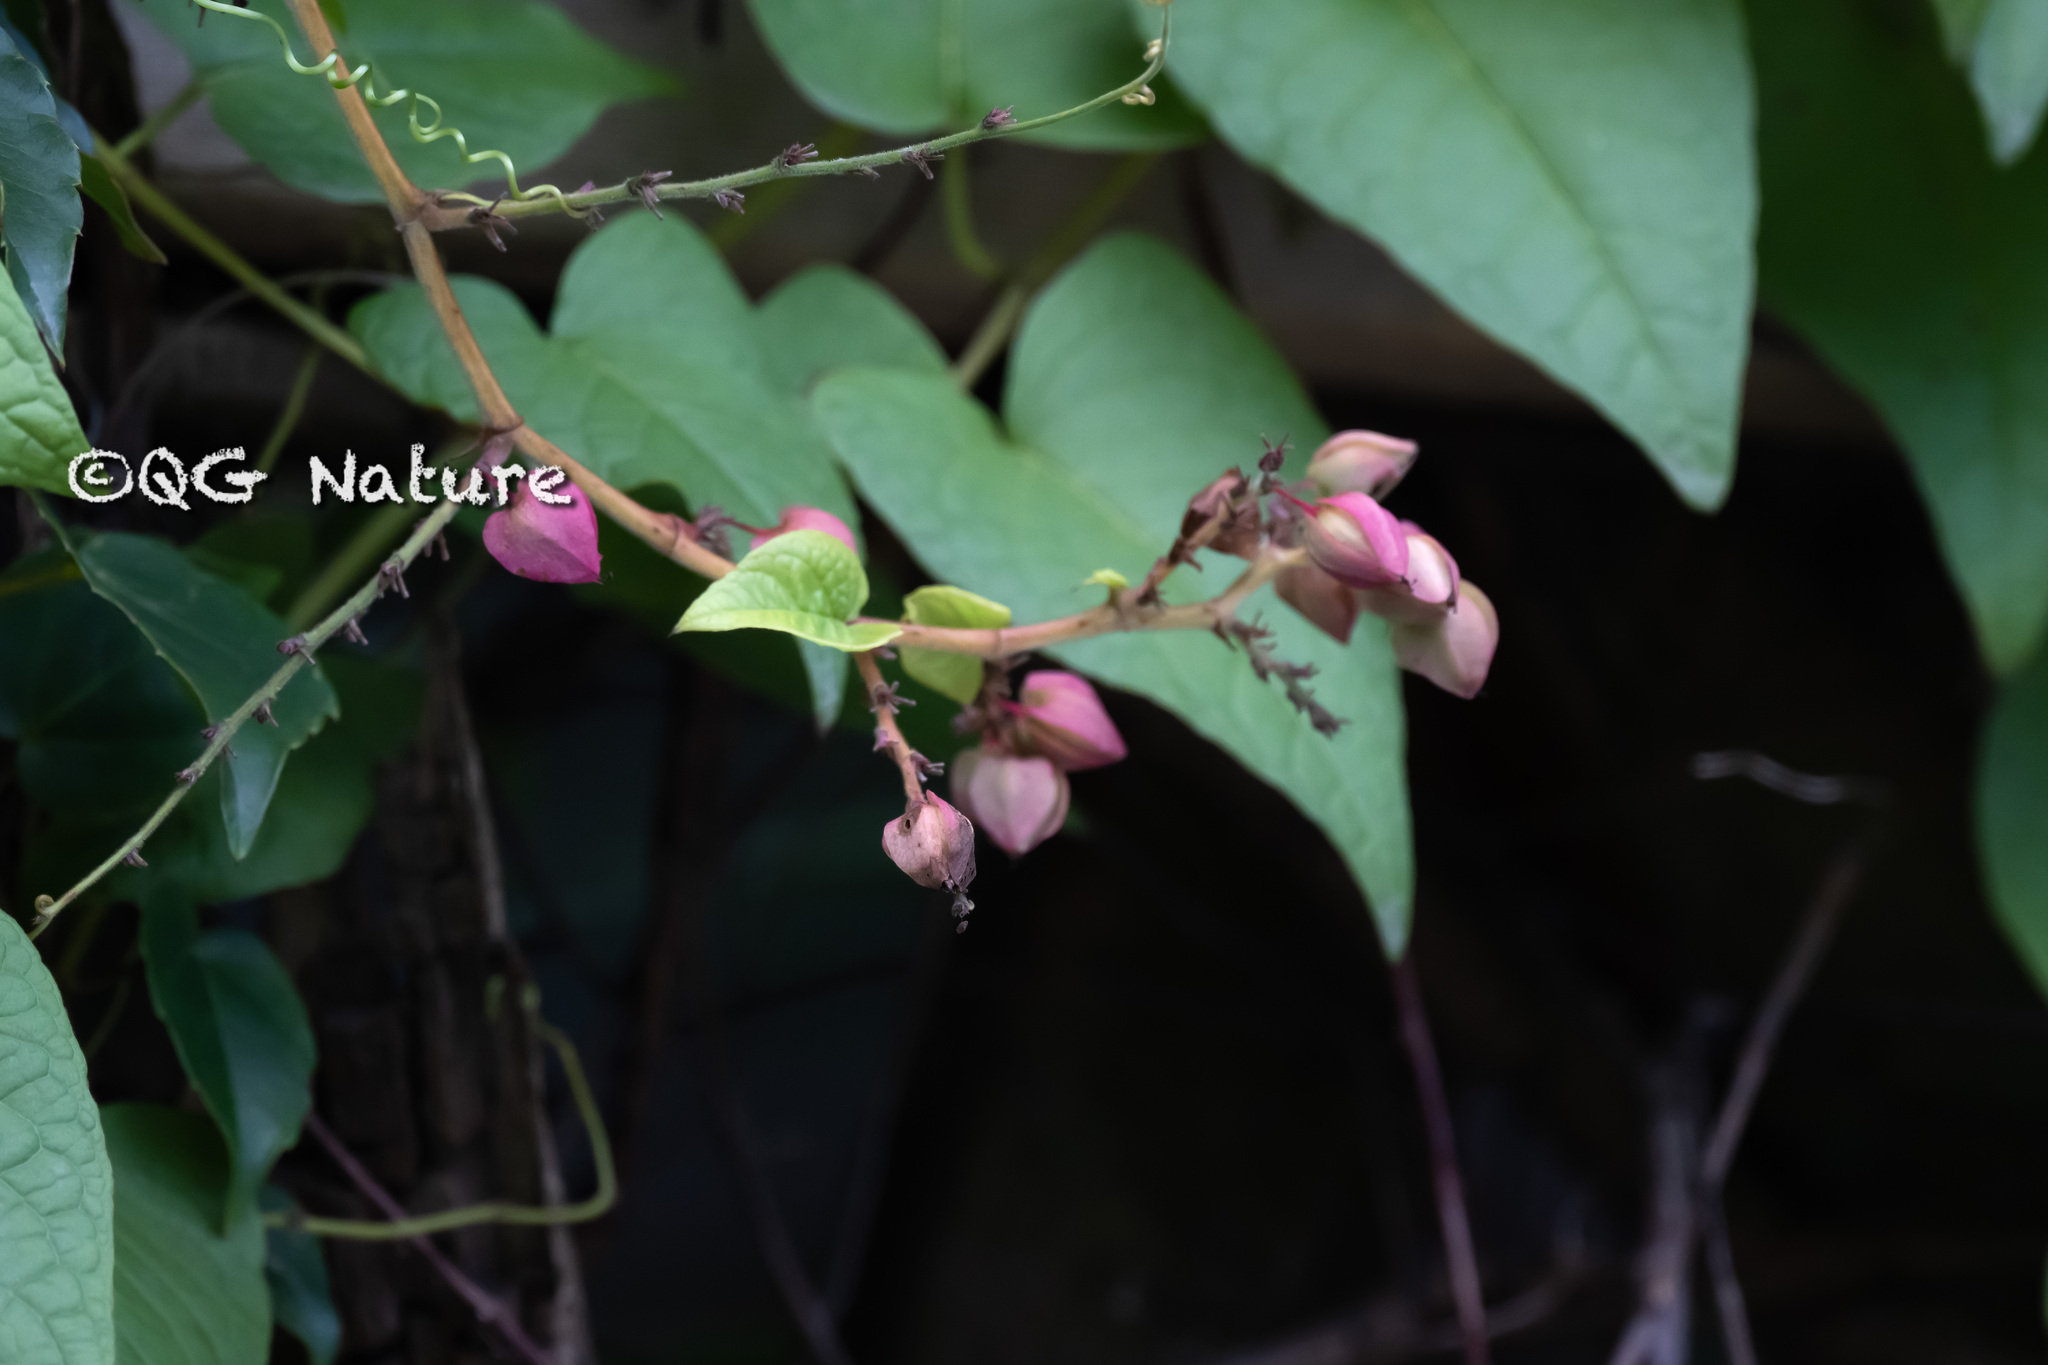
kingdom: Plantae
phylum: Tracheophyta
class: Magnoliopsida
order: Caryophyllales
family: Polygonaceae
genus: Antigonon
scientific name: Antigonon leptopus
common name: Coral vine
